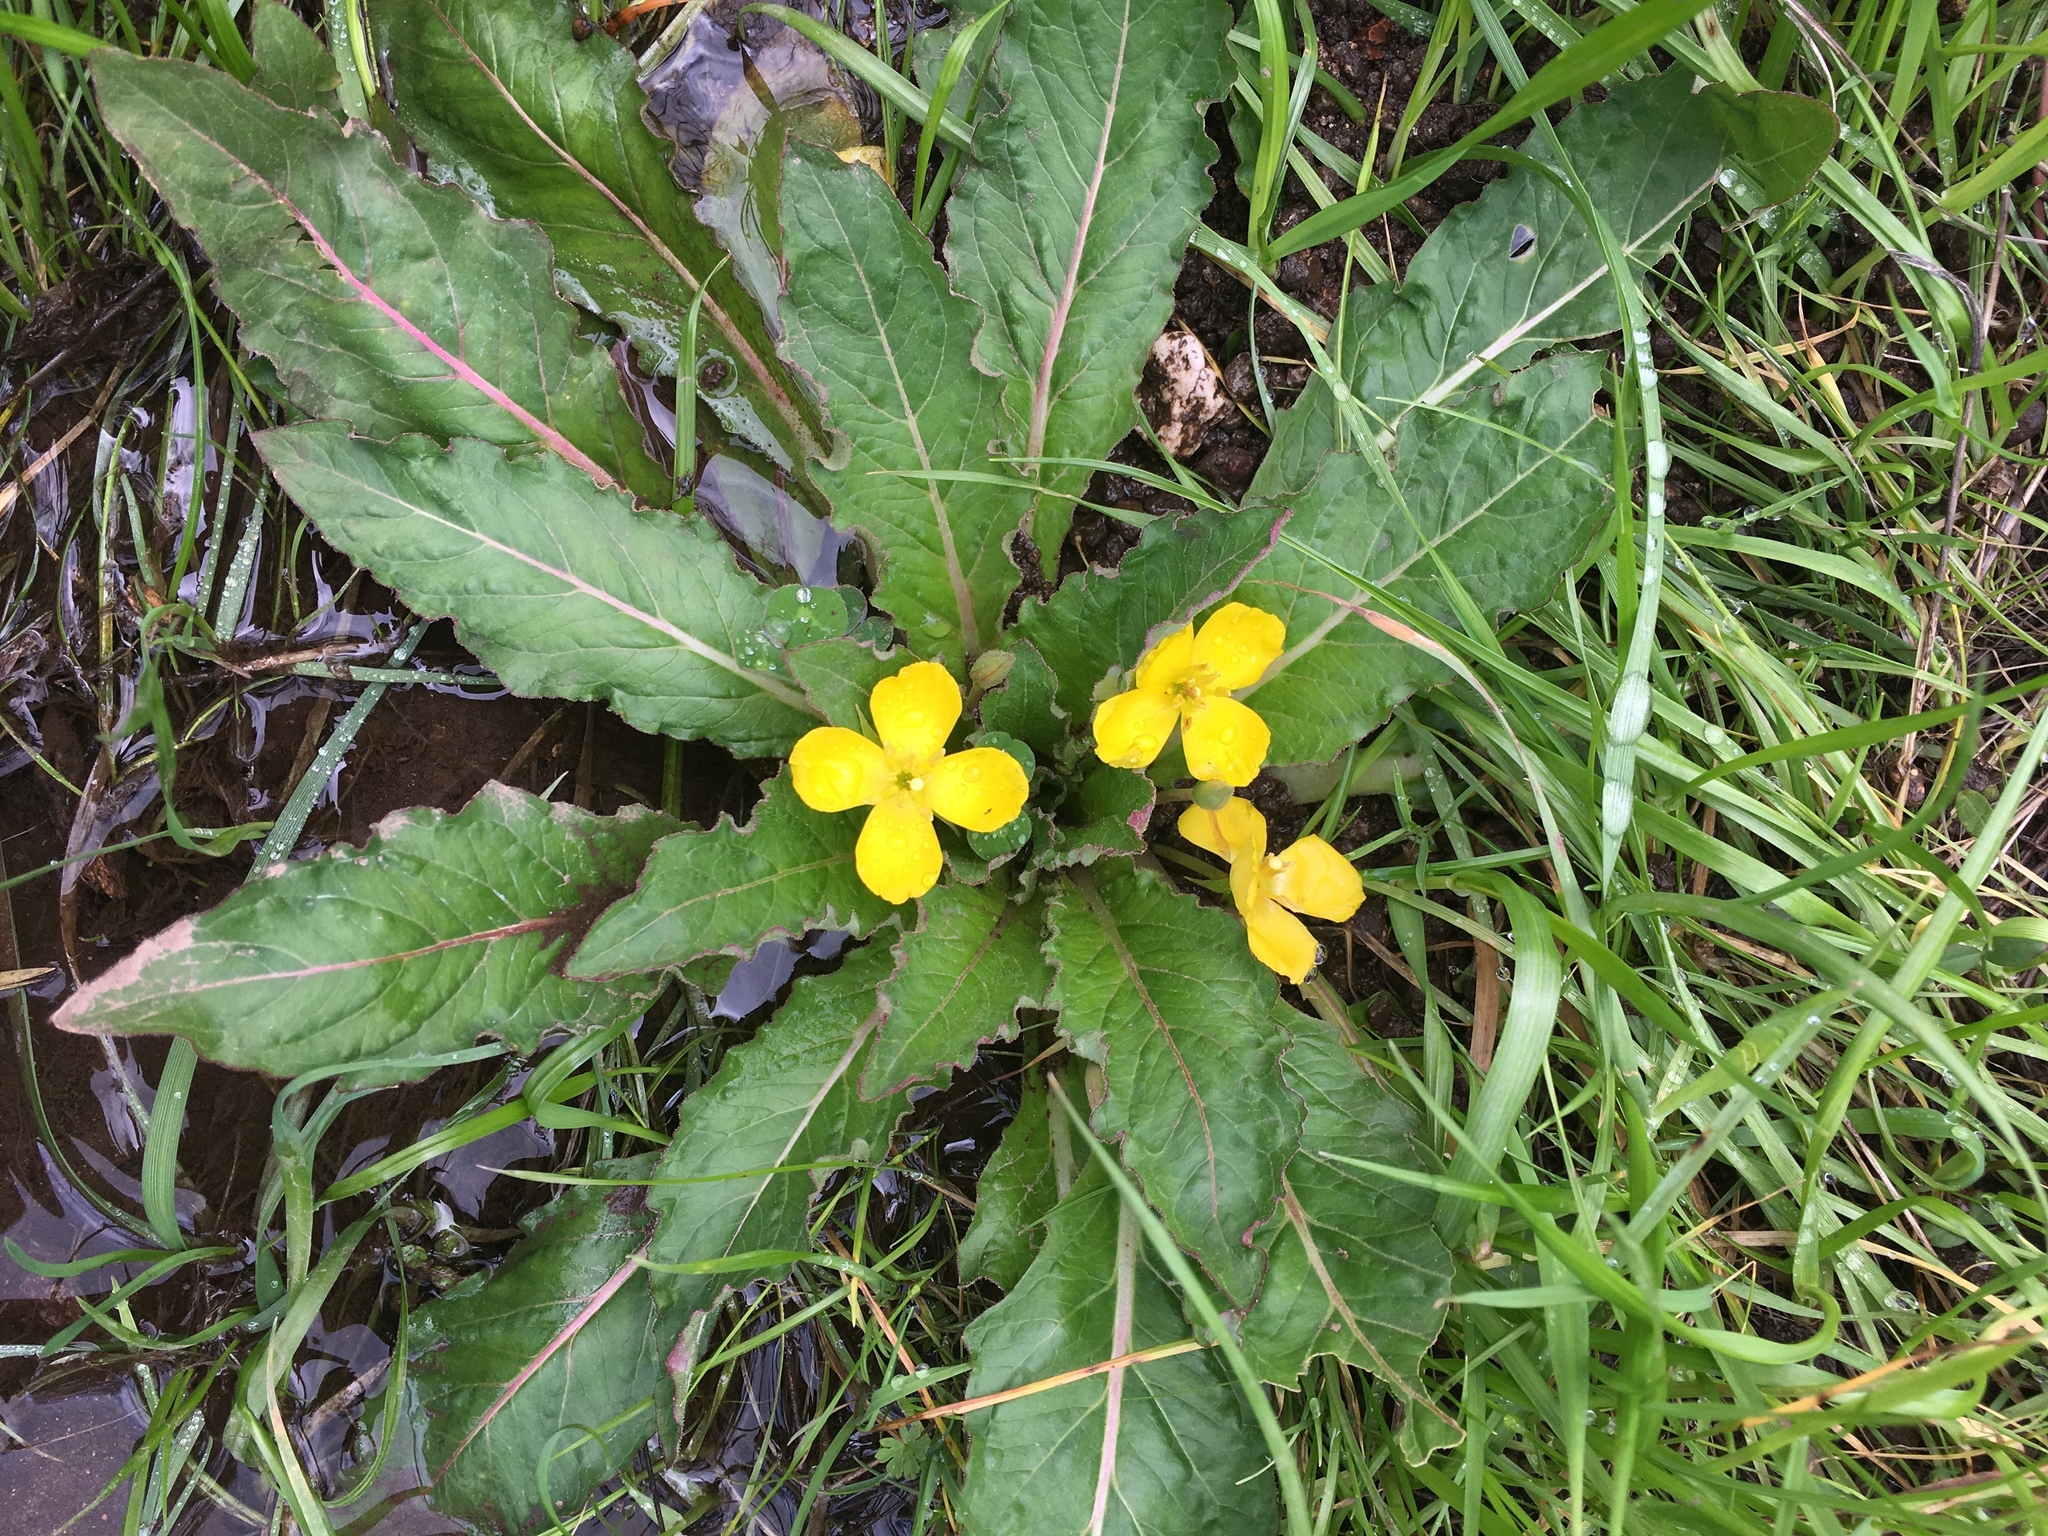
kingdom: Plantae
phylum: Tracheophyta
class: Magnoliopsida
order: Myrtales
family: Onagraceae
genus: Taraxia
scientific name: Taraxia ovata
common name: Goldeneggs
